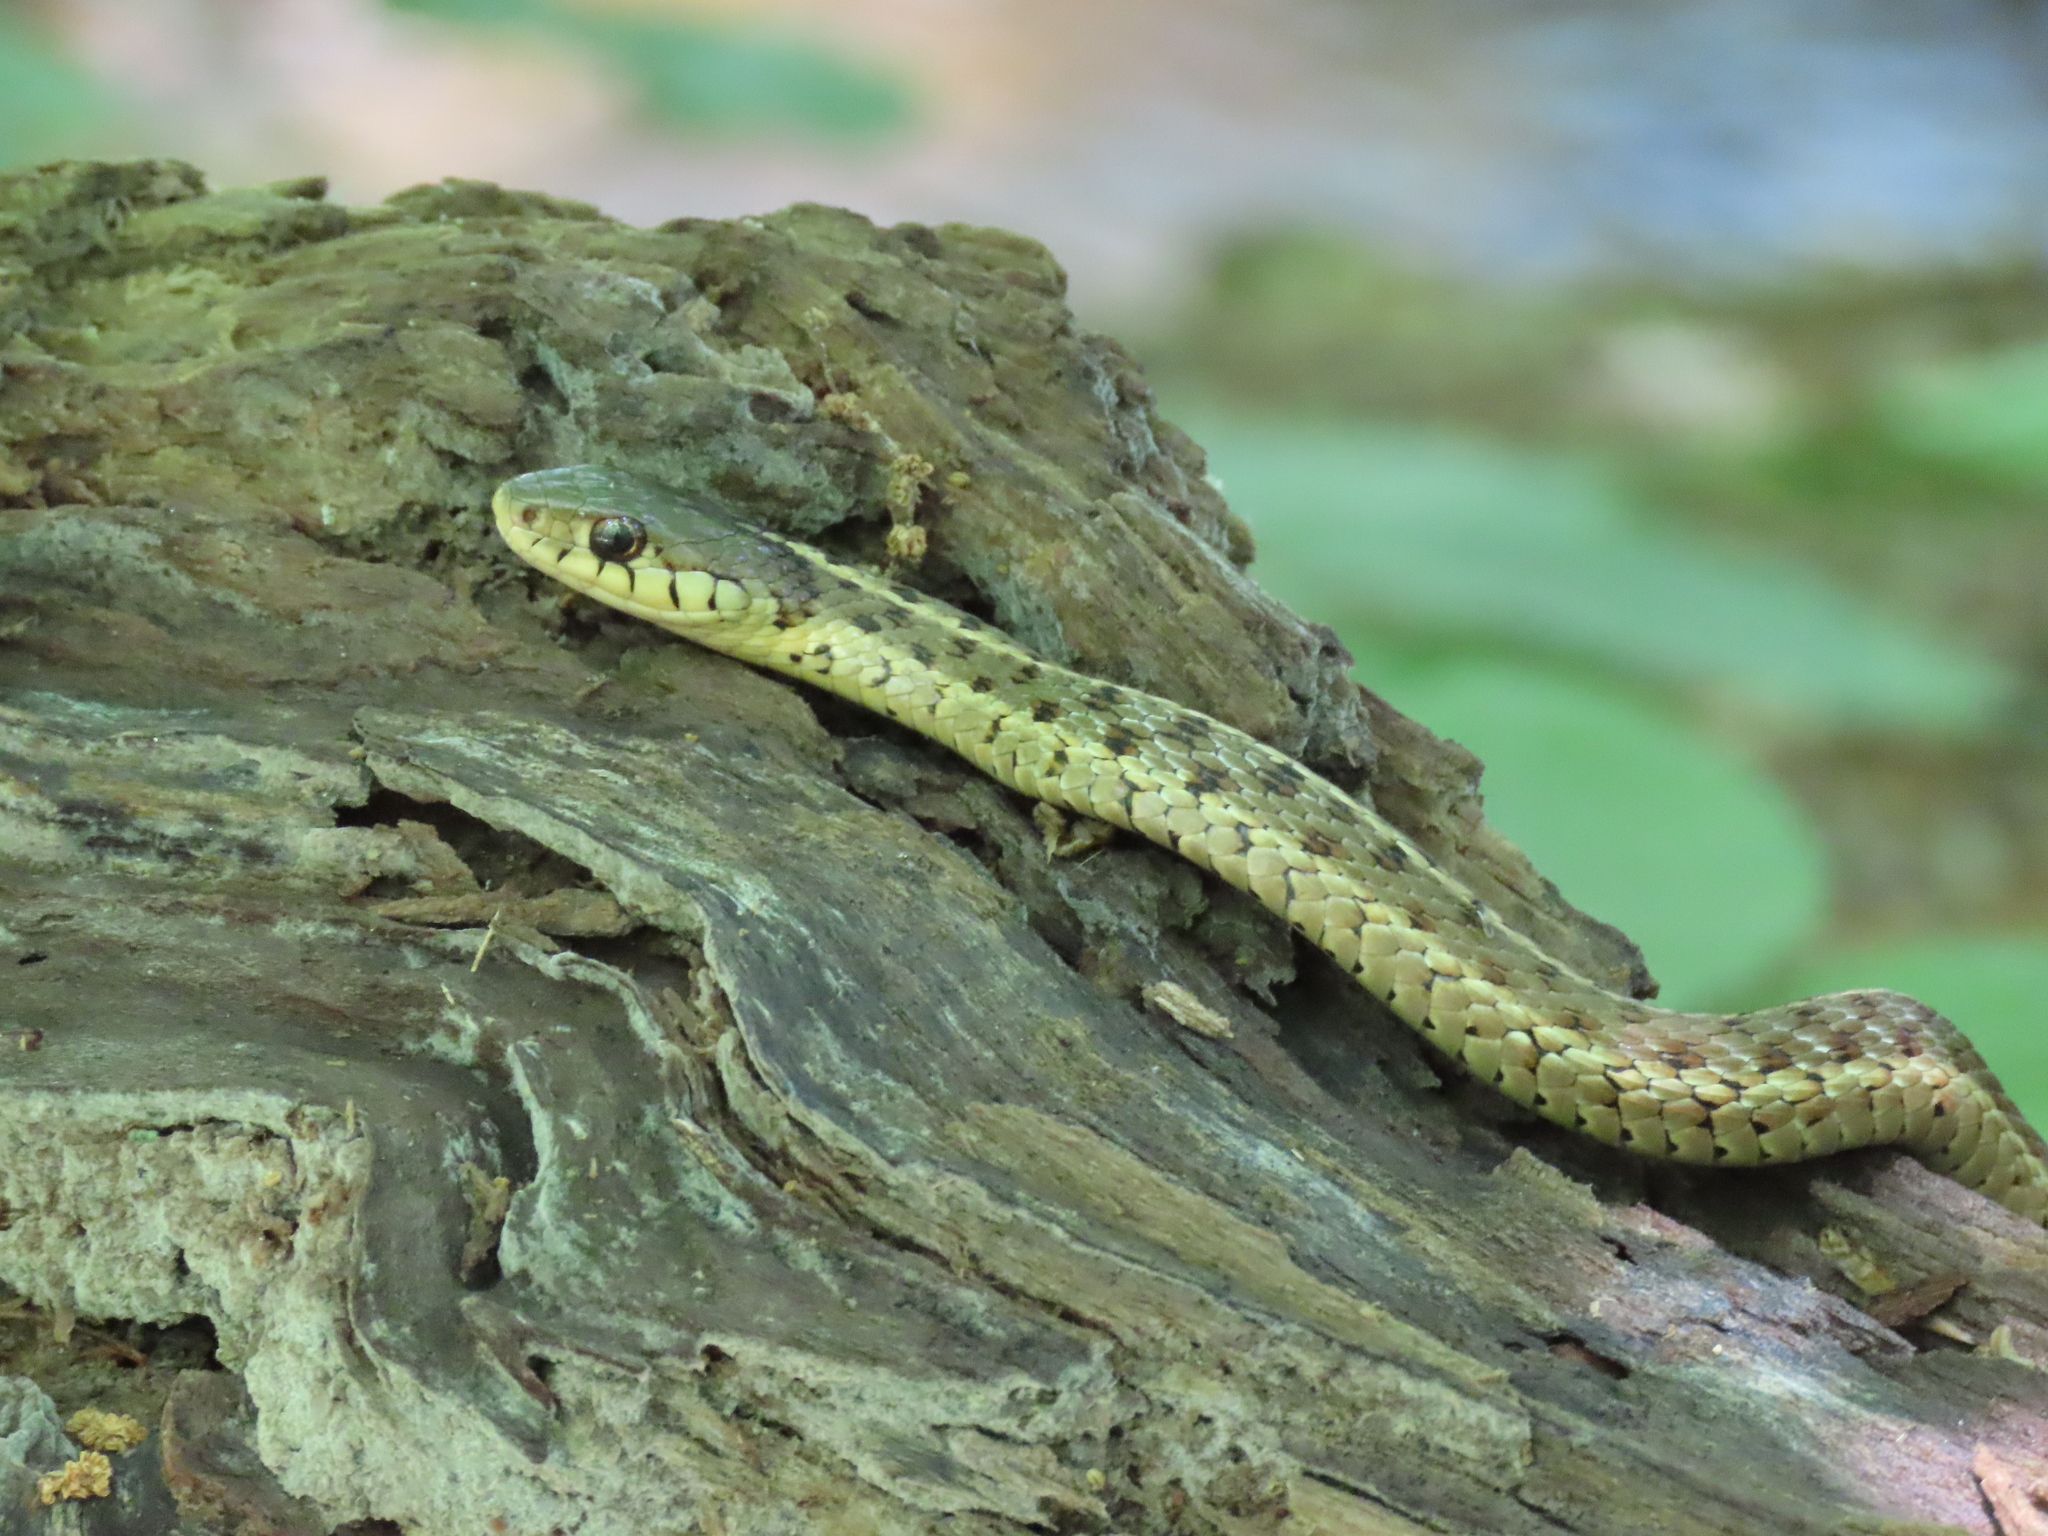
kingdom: Animalia
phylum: Chordata
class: Squamata
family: Colubridae
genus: Thamnophis
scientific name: Thamnophis sirtalis
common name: Common garter snake
